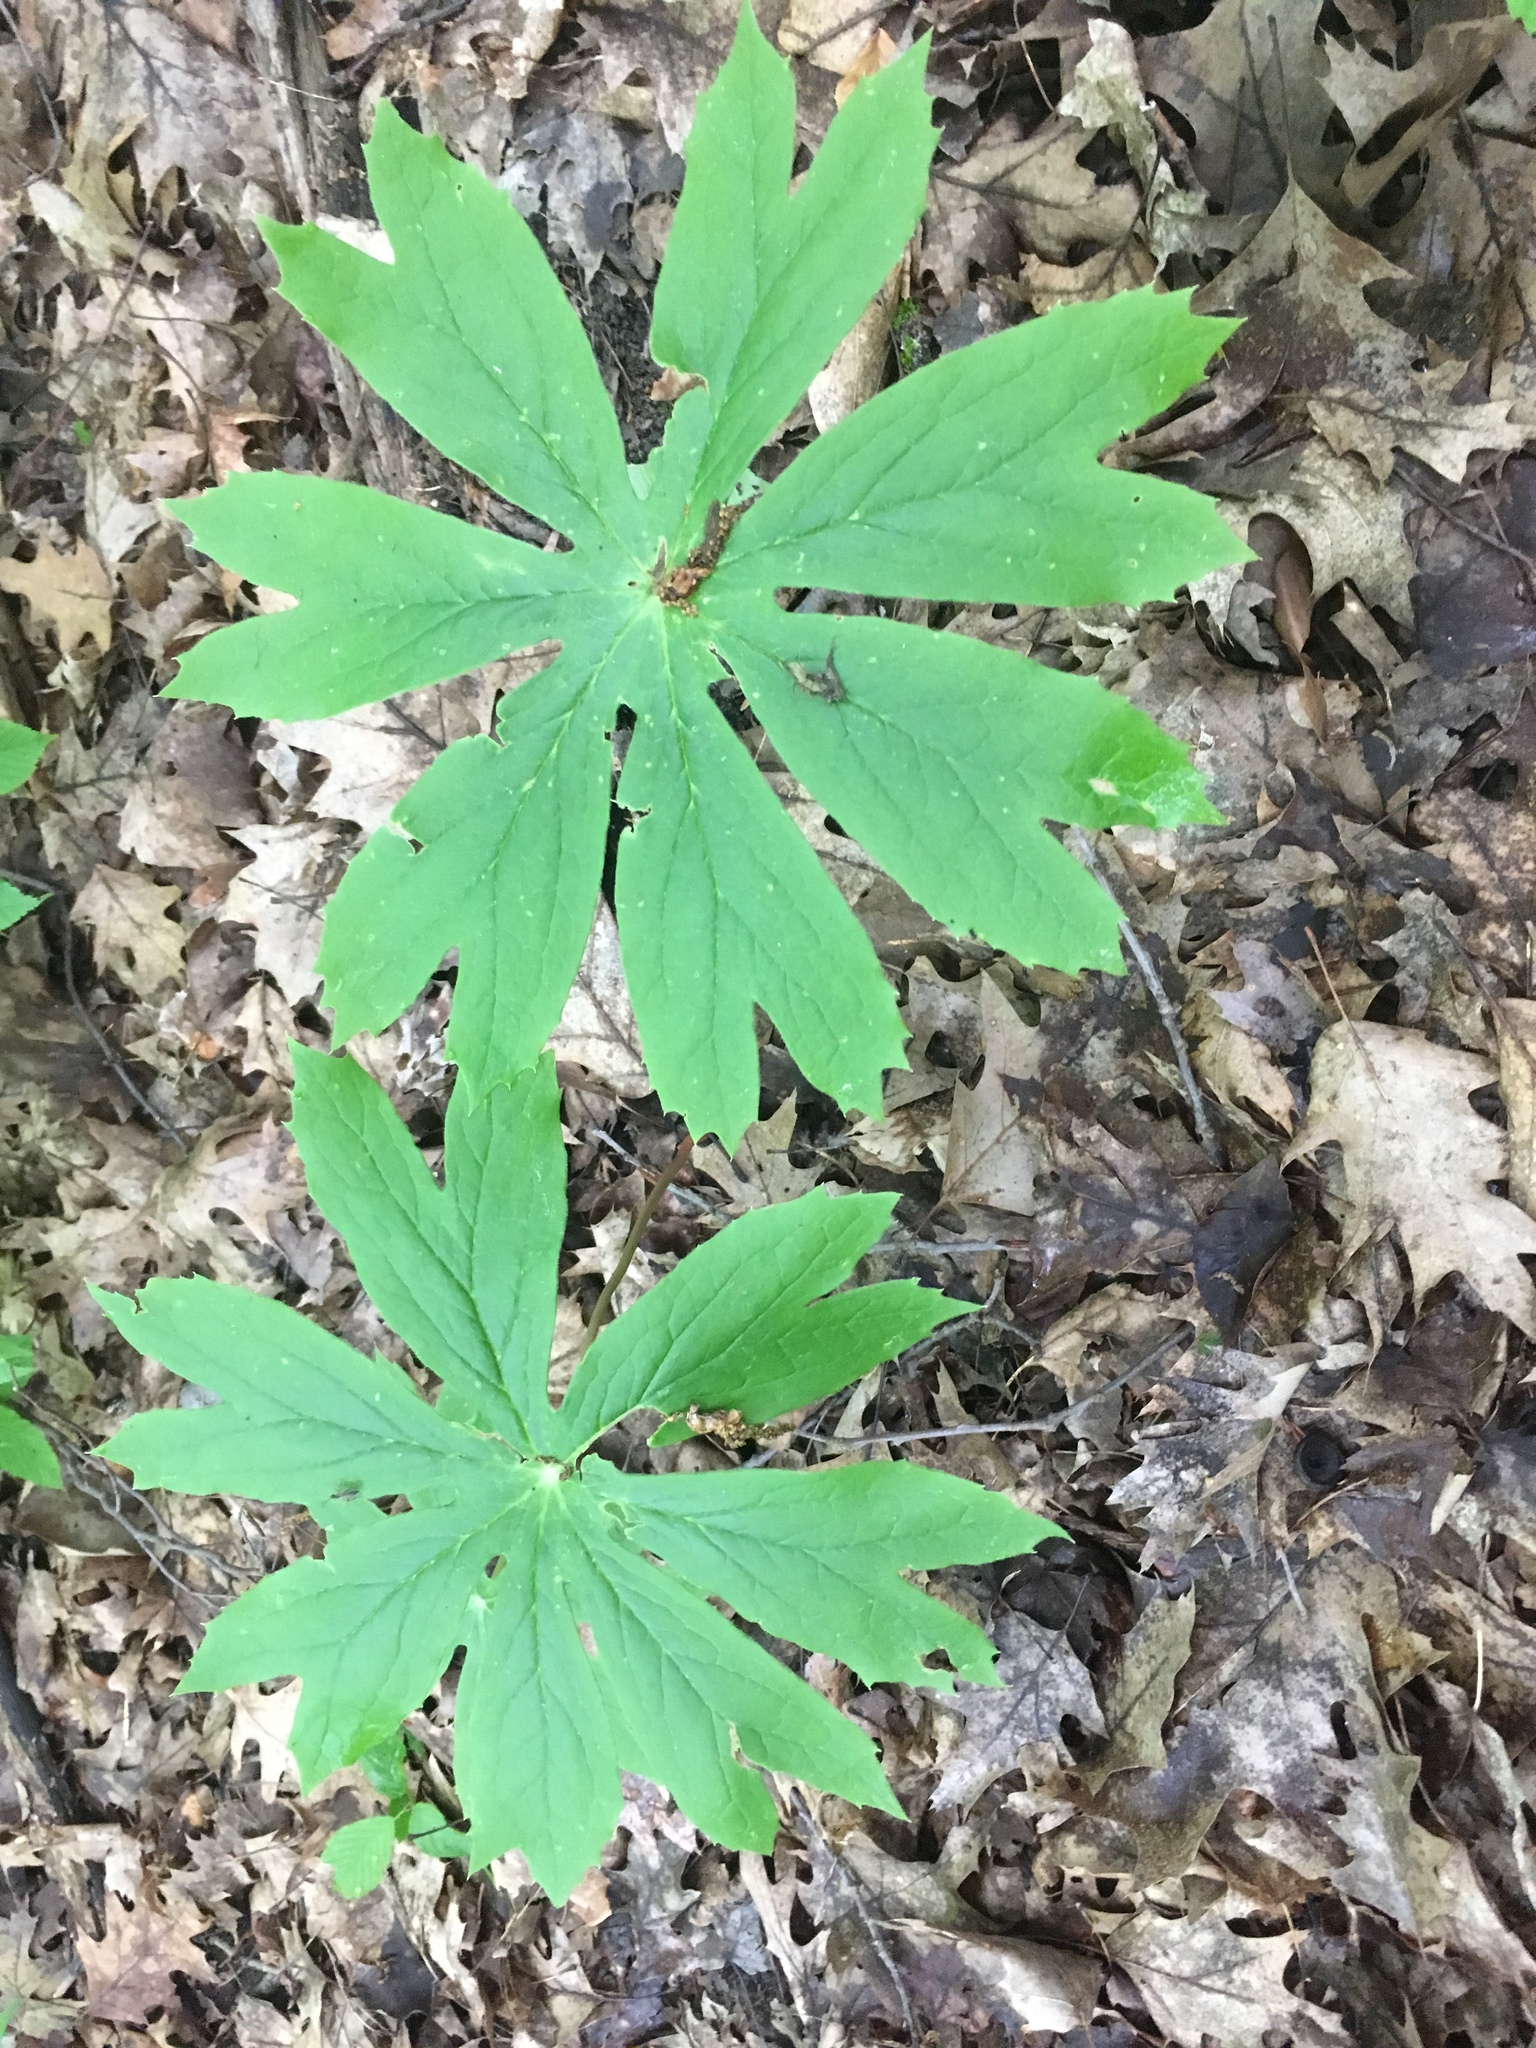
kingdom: Plantae
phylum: Tracheophyta
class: Magnoliopsida
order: Ranunculales
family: Berberidaceae
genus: Podophyllum
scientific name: Podophyllum peltatum
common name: Wild mandrake
